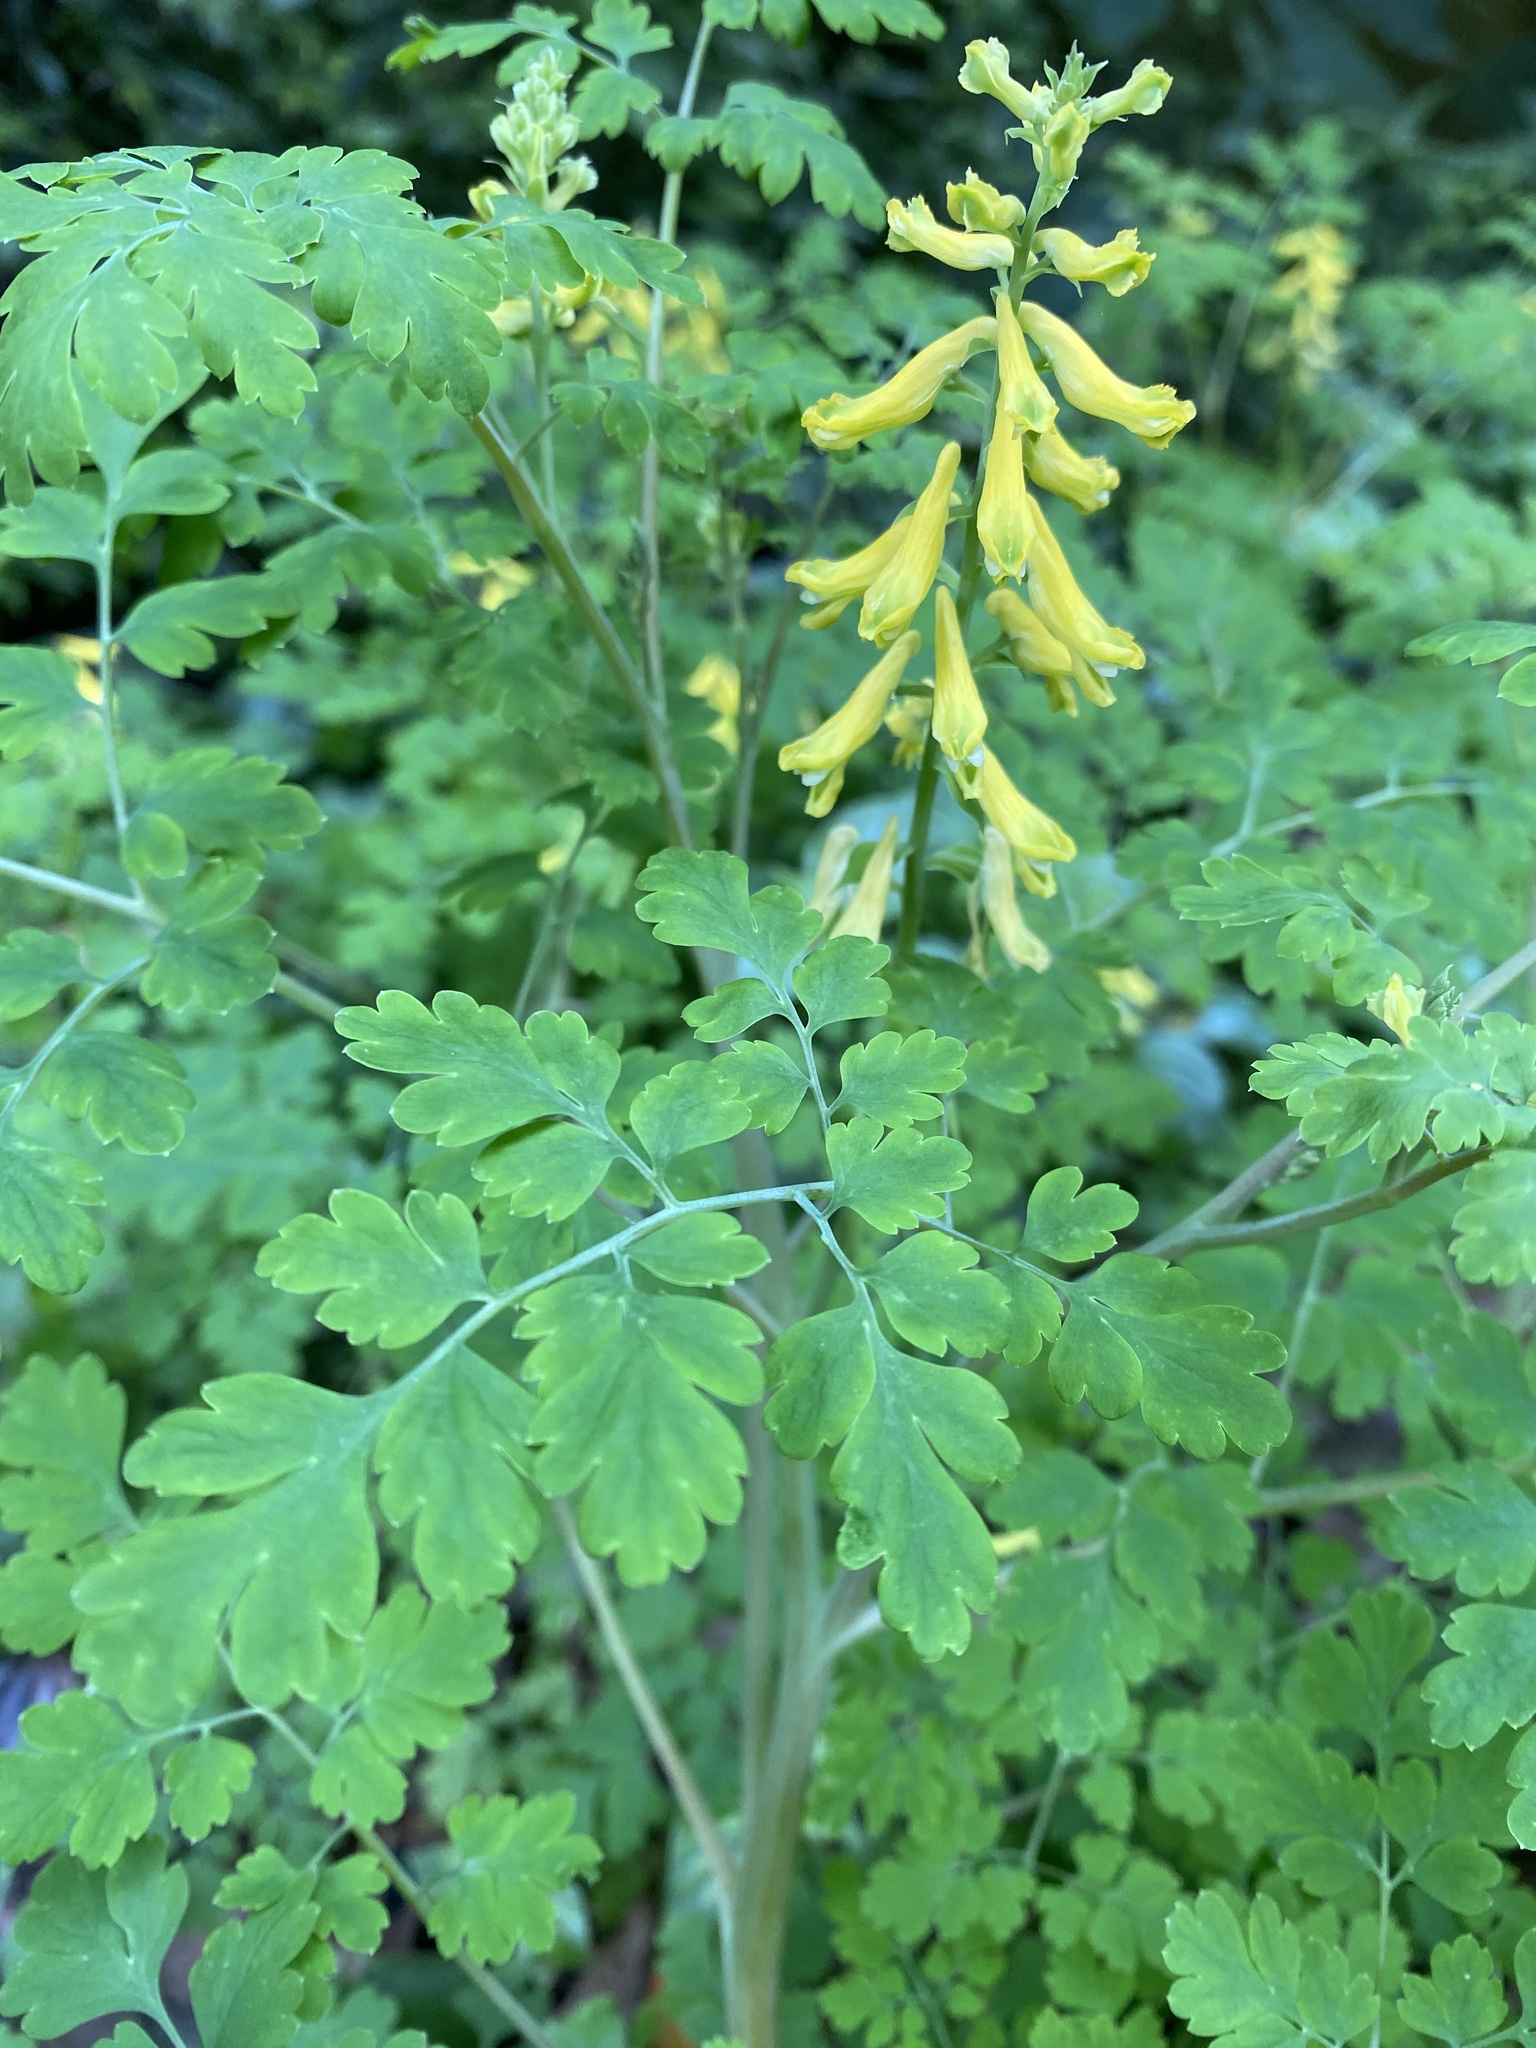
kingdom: Plantae
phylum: Tracheophyta
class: Magnoliopsida
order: Ranunculales
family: Papaveraceae
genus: Corydalis
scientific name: Corydalis balansae
